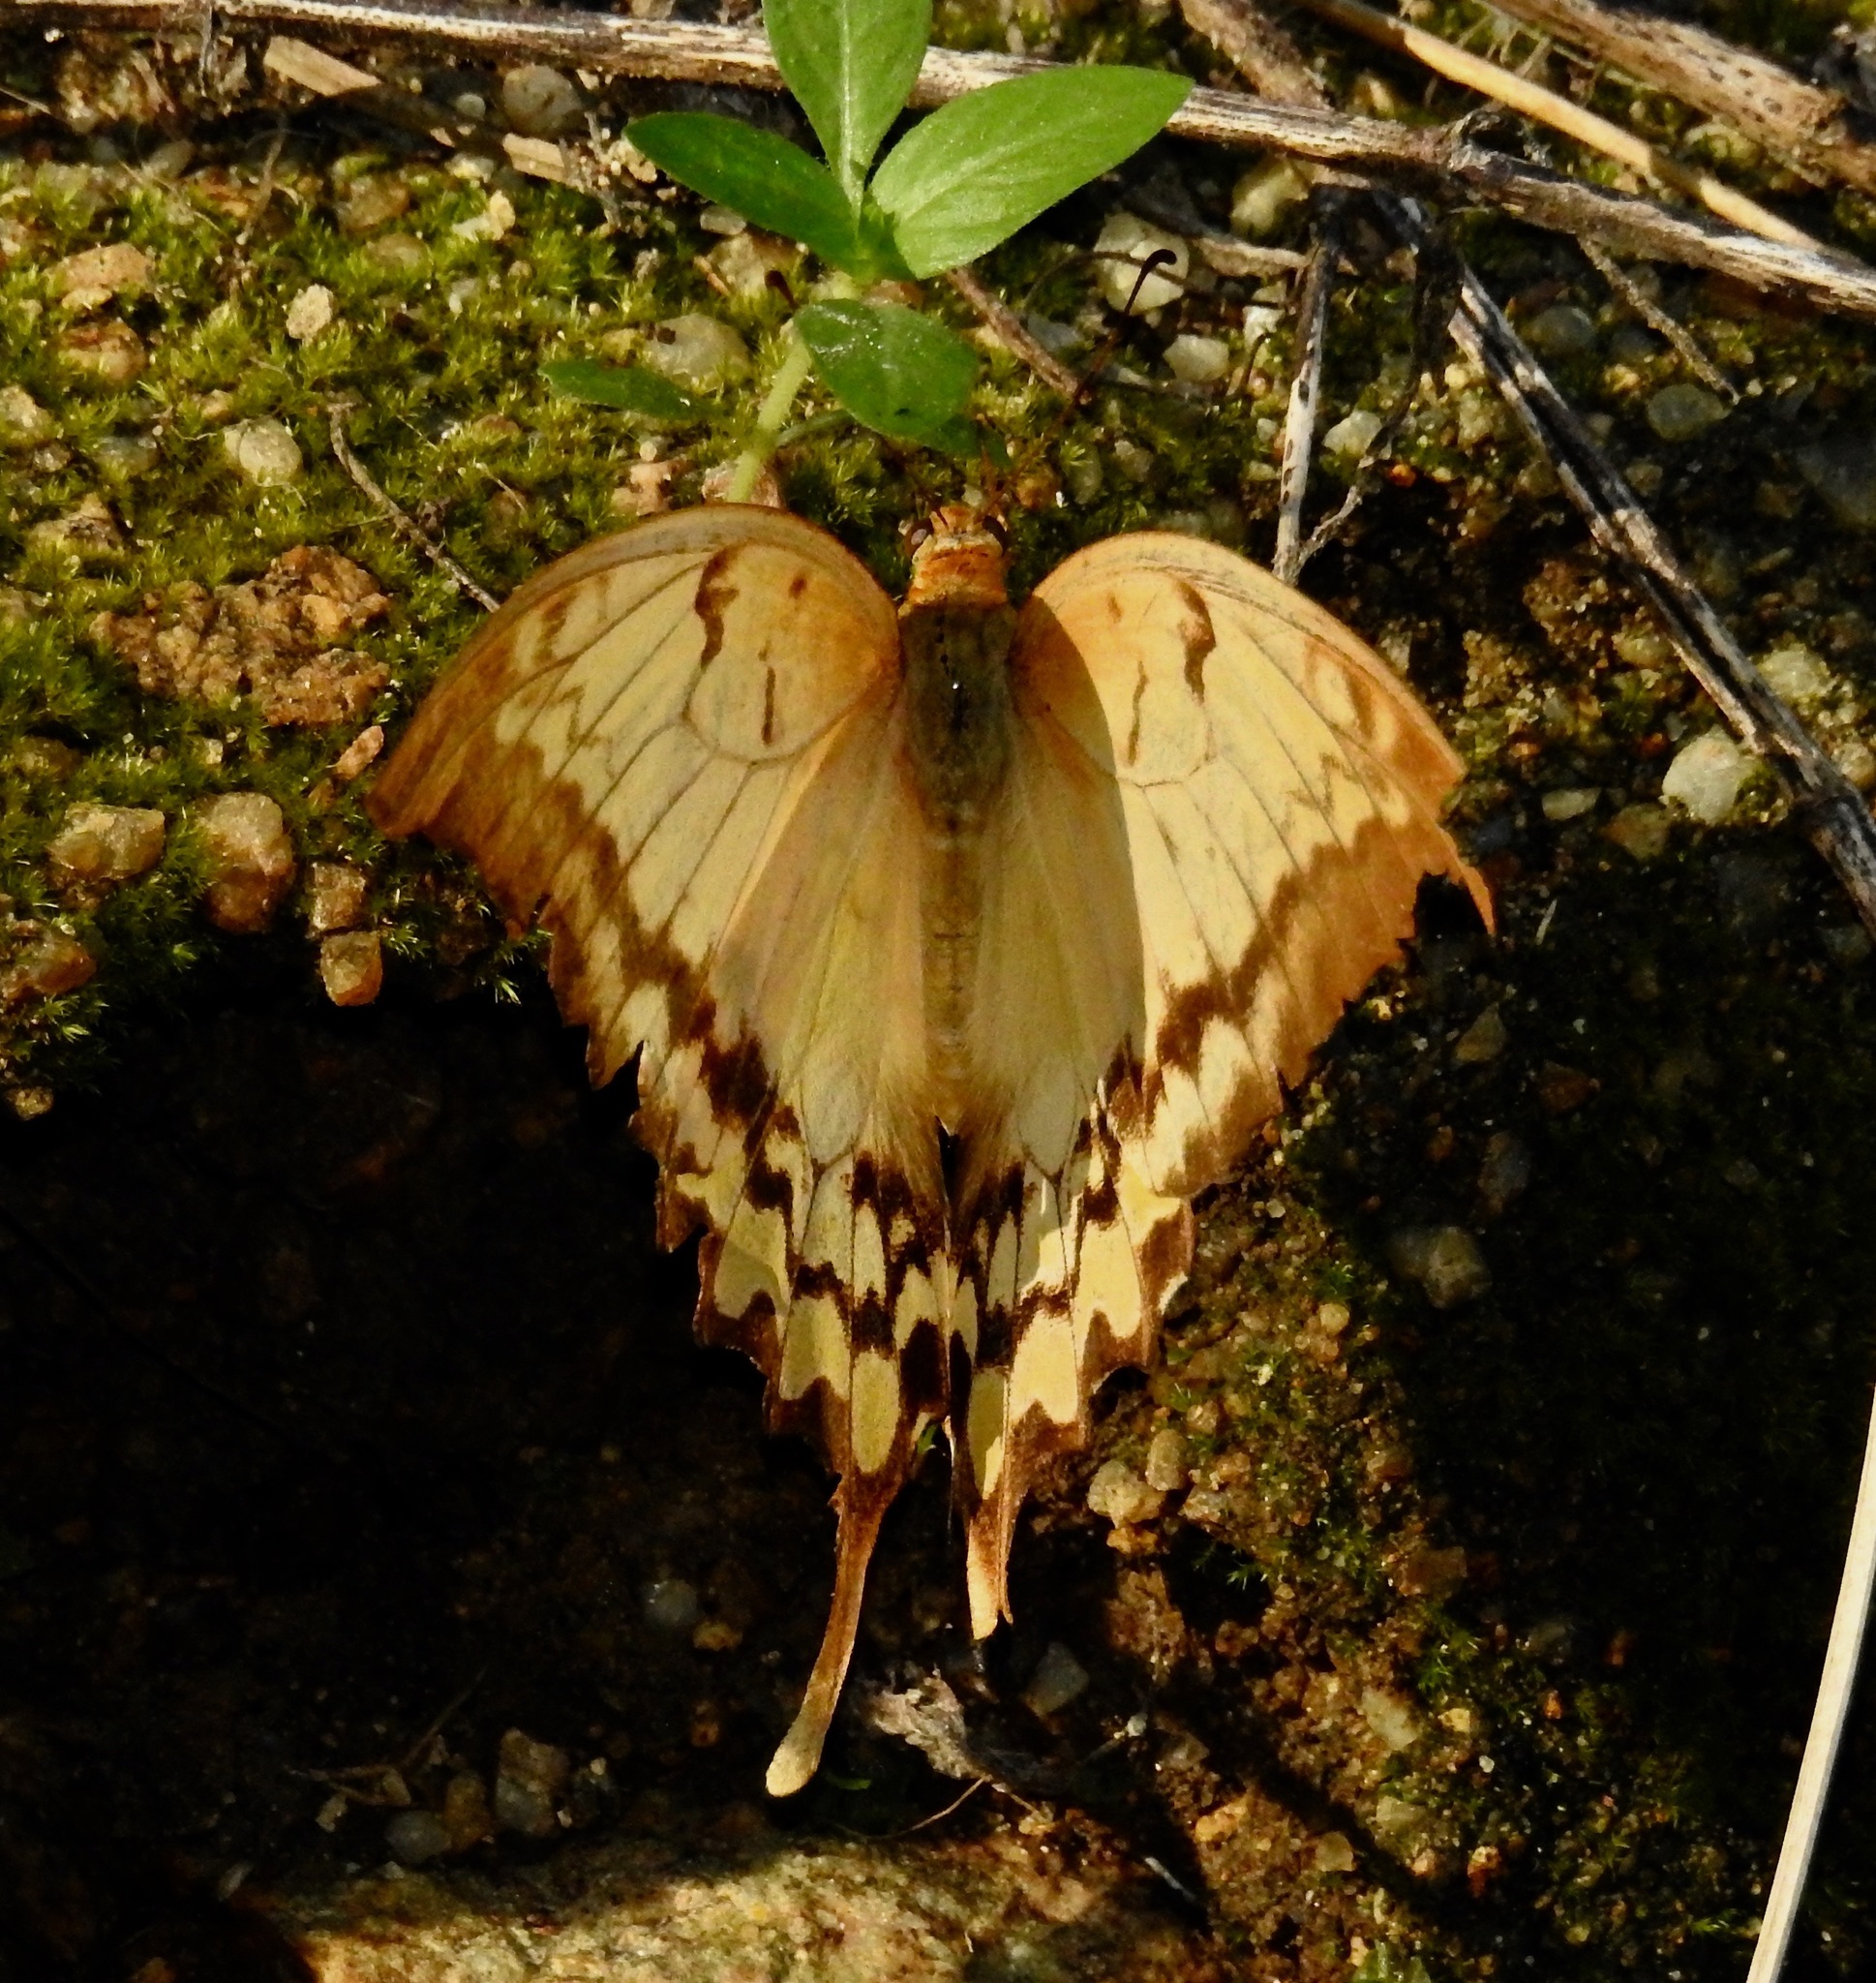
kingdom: Animalia
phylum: Arthropoda
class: Insecta
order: Lepidoptera
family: Papilionidae
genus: Meandrusa
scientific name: Meandrusa payeni
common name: Outlet sword
